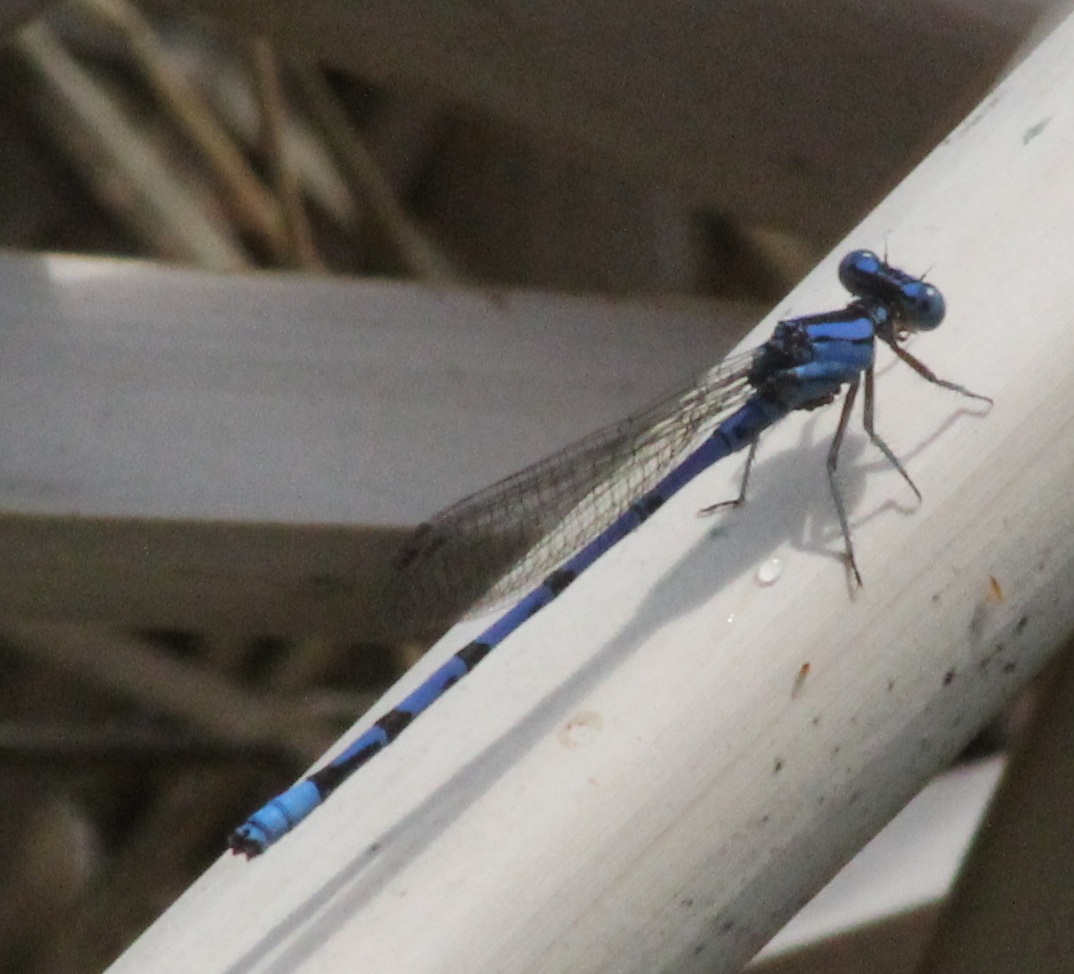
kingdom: Animalia
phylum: Arthropoda
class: Insecta
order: Odonata
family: Coenagrionidae
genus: Argia
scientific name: Argia funebris
